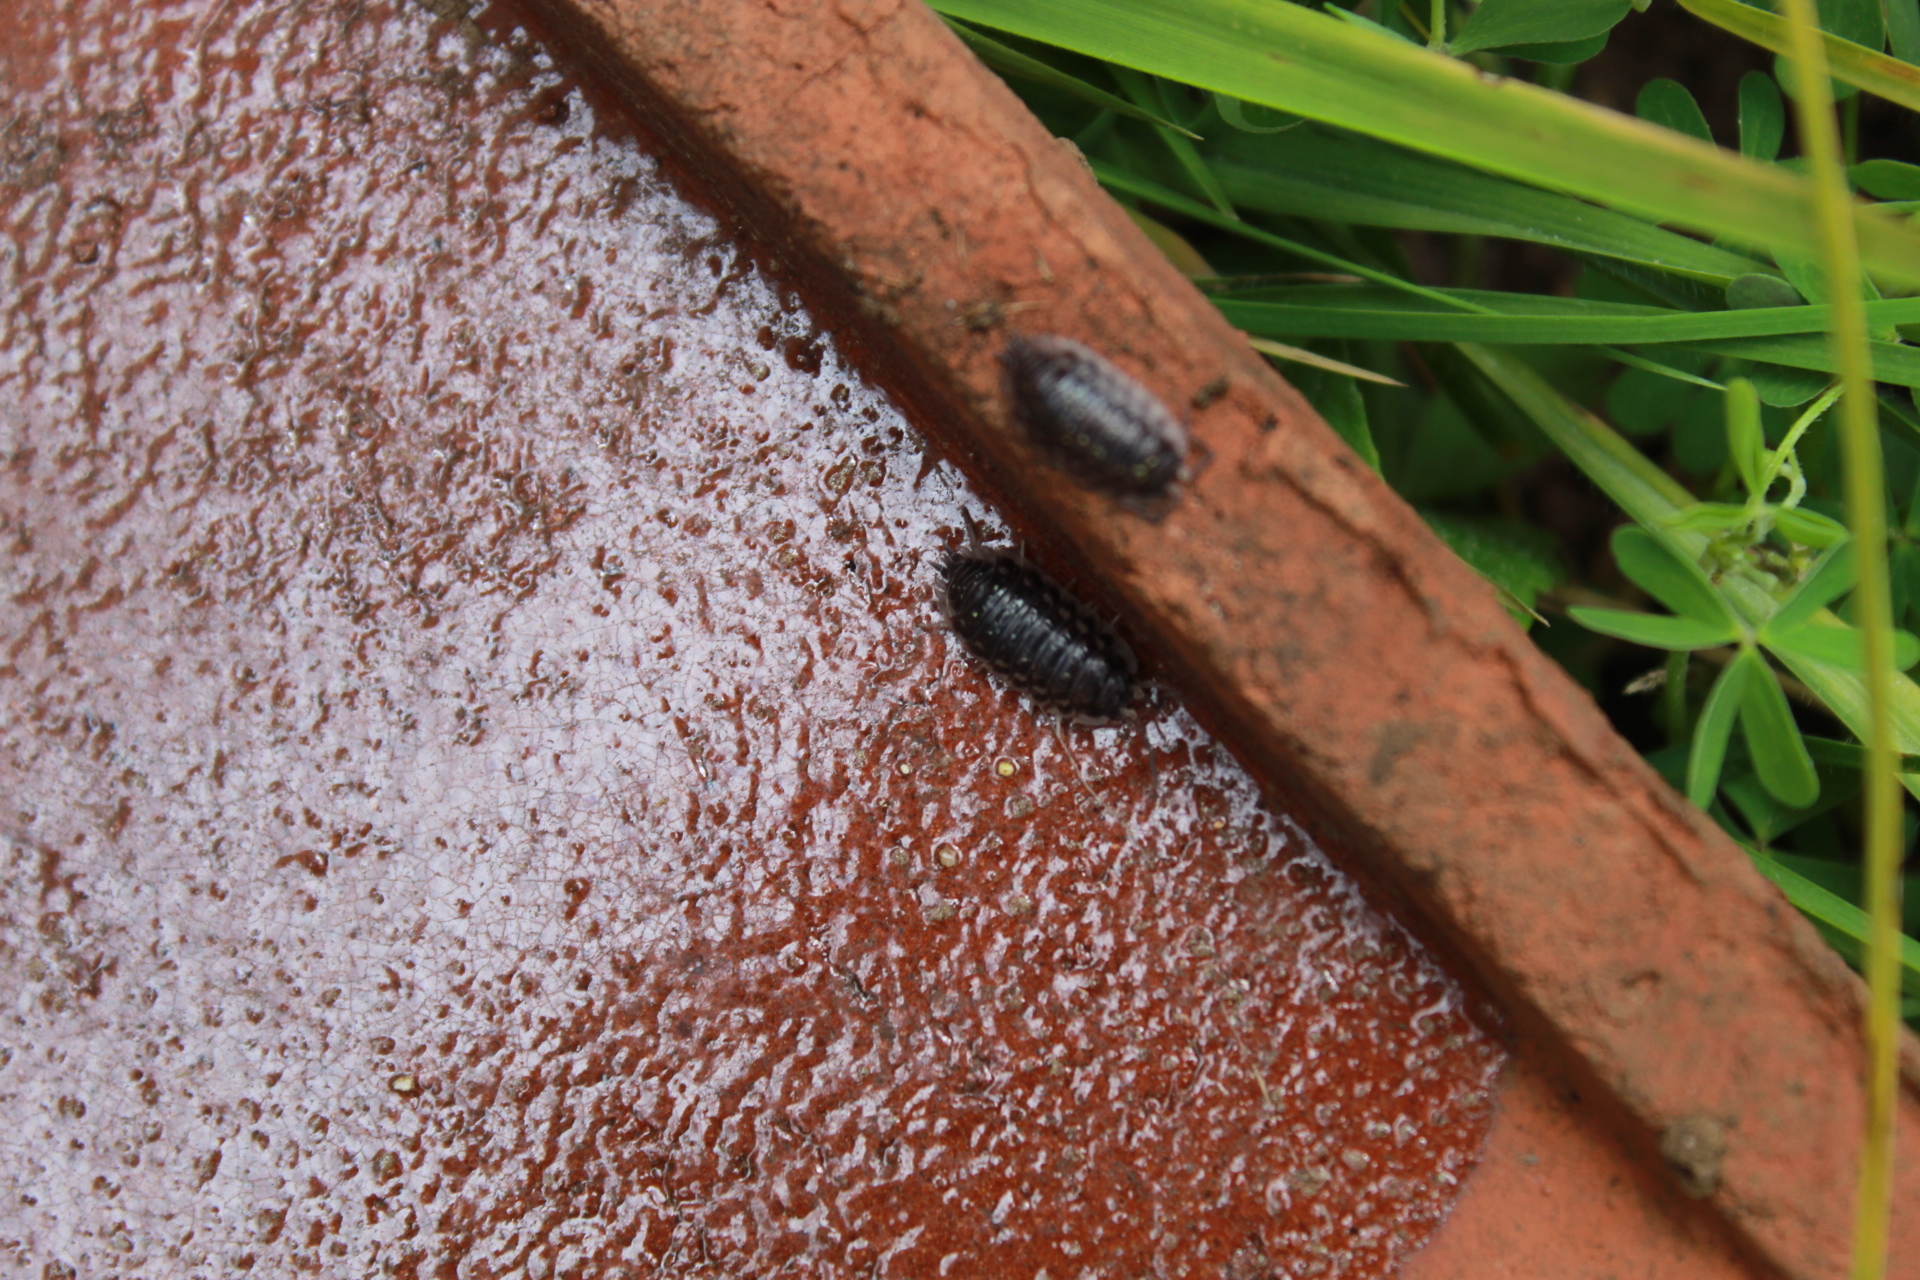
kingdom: Animalia
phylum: Arthropoda
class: Malacostraca
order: Isopoda
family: Oniscidae
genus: Oniscus
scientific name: Oniscus asellus
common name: Common shiny woodlouse
